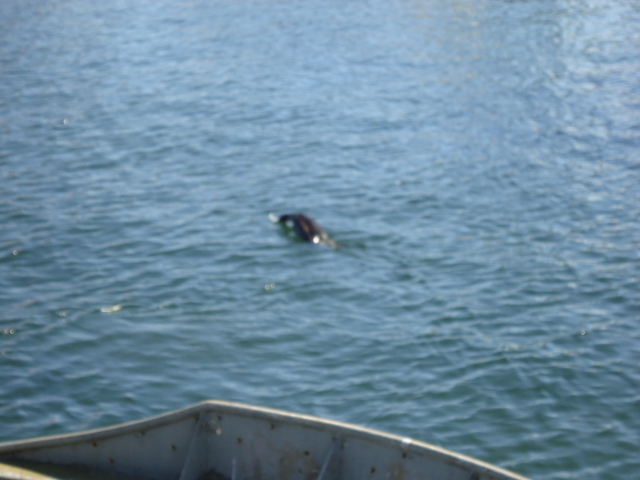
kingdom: Animalia
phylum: Chordata
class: Aves
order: Suliformes
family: Phalacrocoracidae
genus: Phalacrocorax
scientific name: Phalacrocorax carbo
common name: Great cormorant
